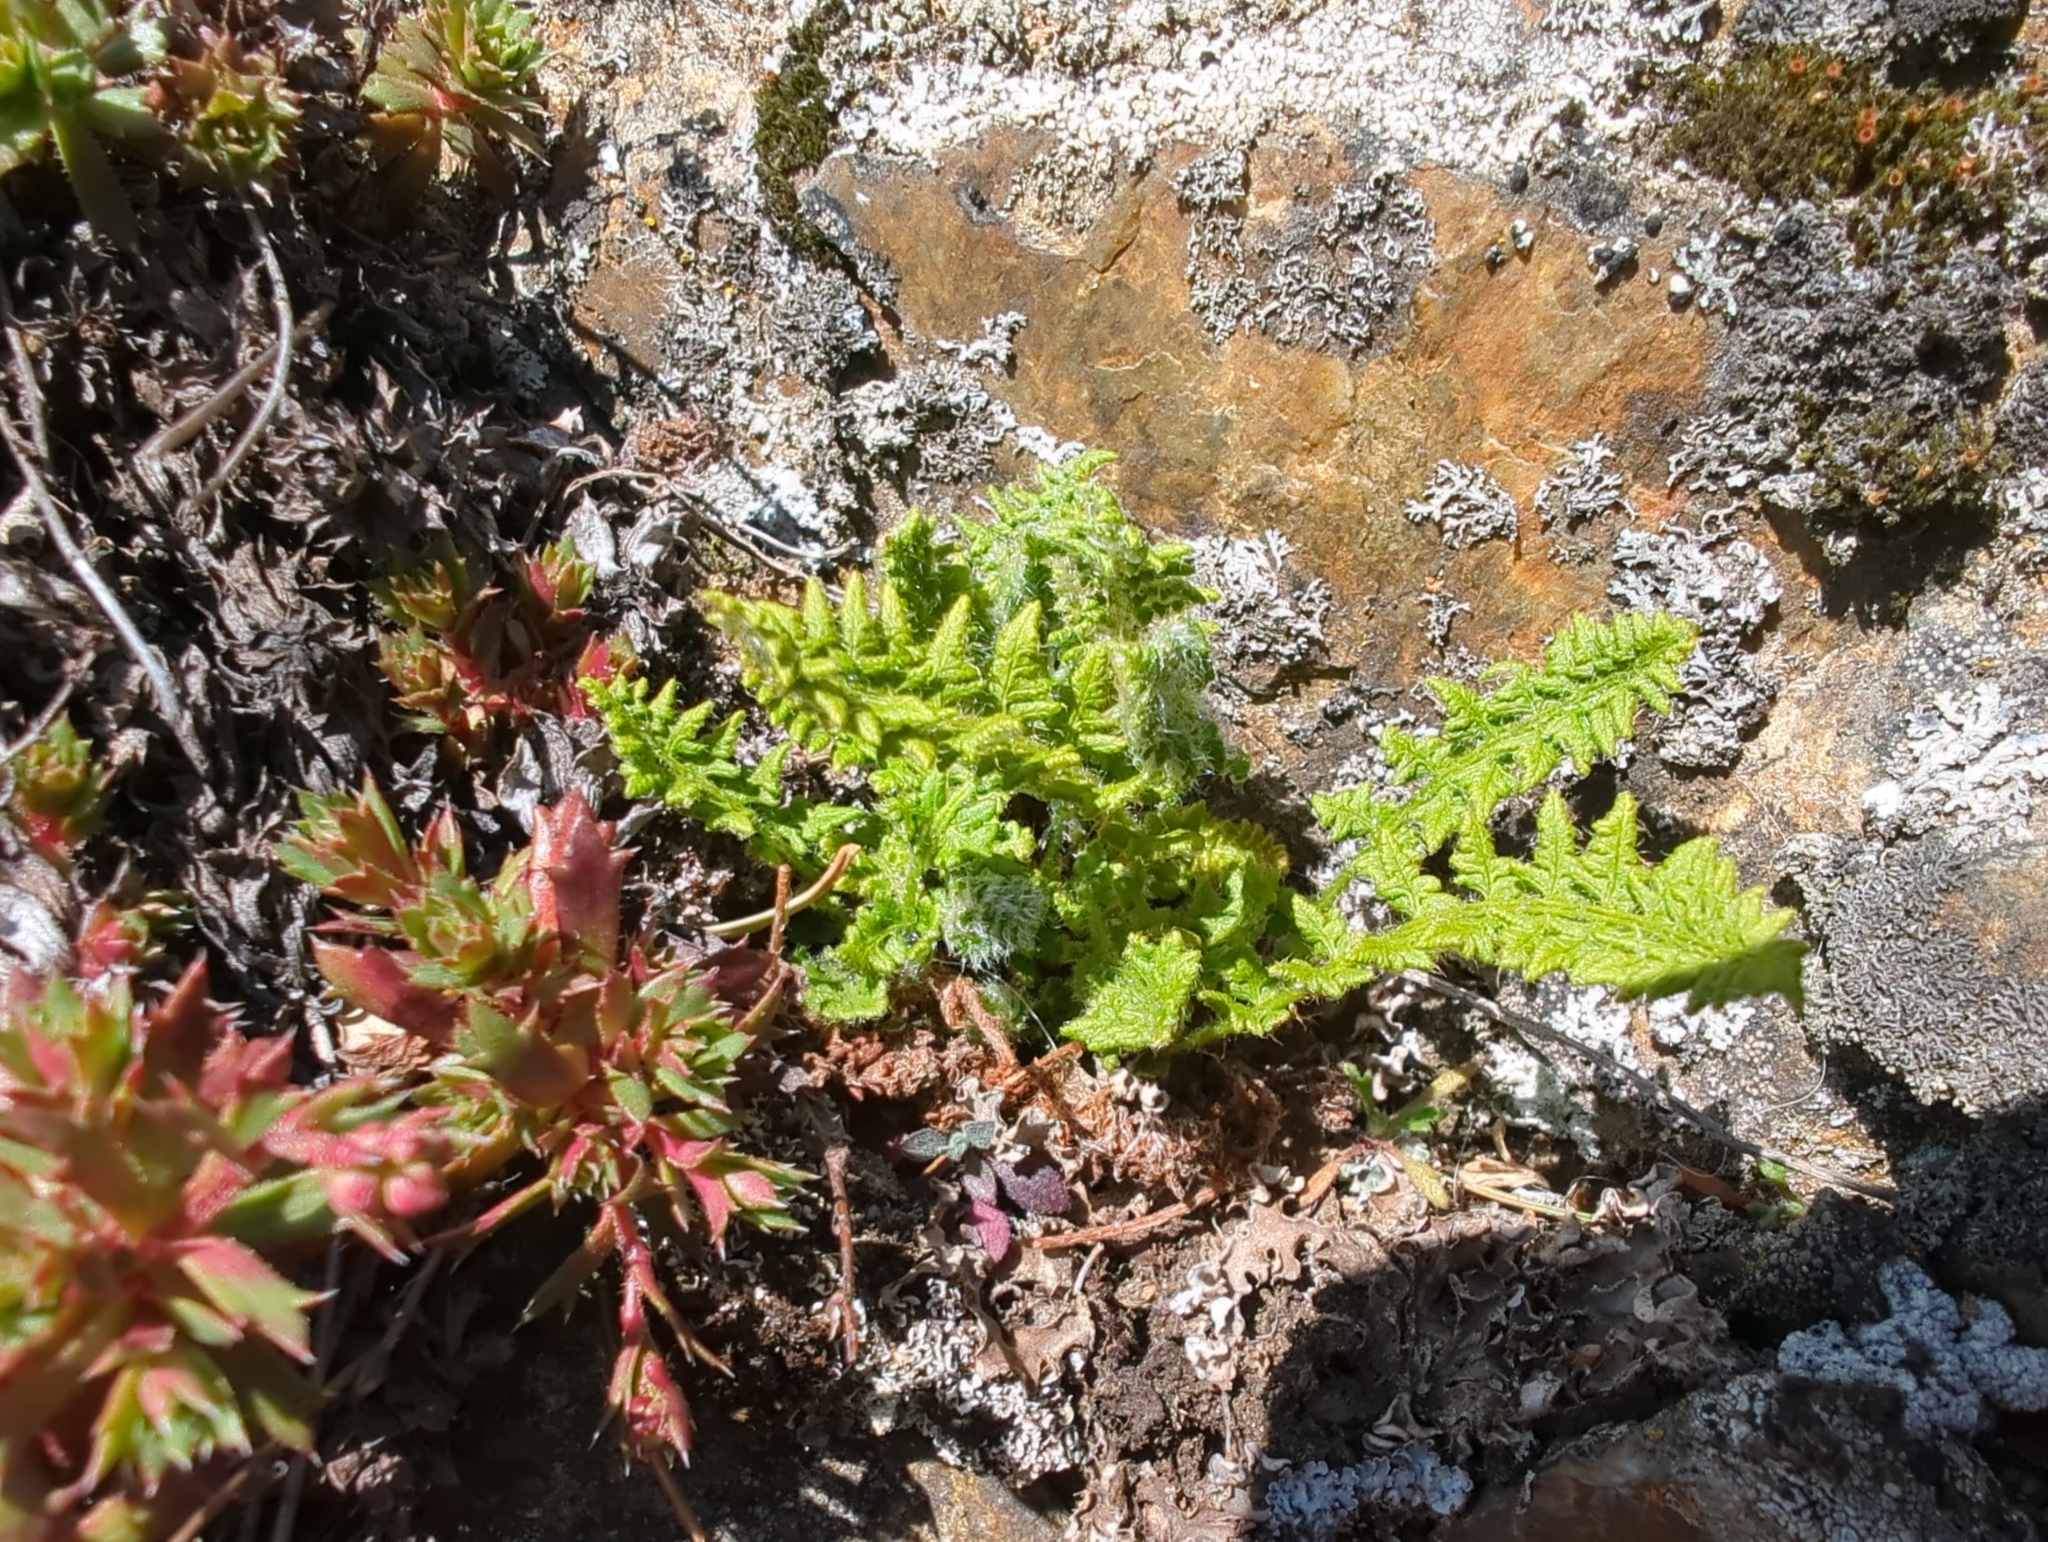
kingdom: Plantae
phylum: Tracheophyta
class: Polypodiopsida
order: Polypodiales
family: Woodsiaceae
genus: Woodsia
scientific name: Woodsia ilvensis
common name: Fragrant woodsia
